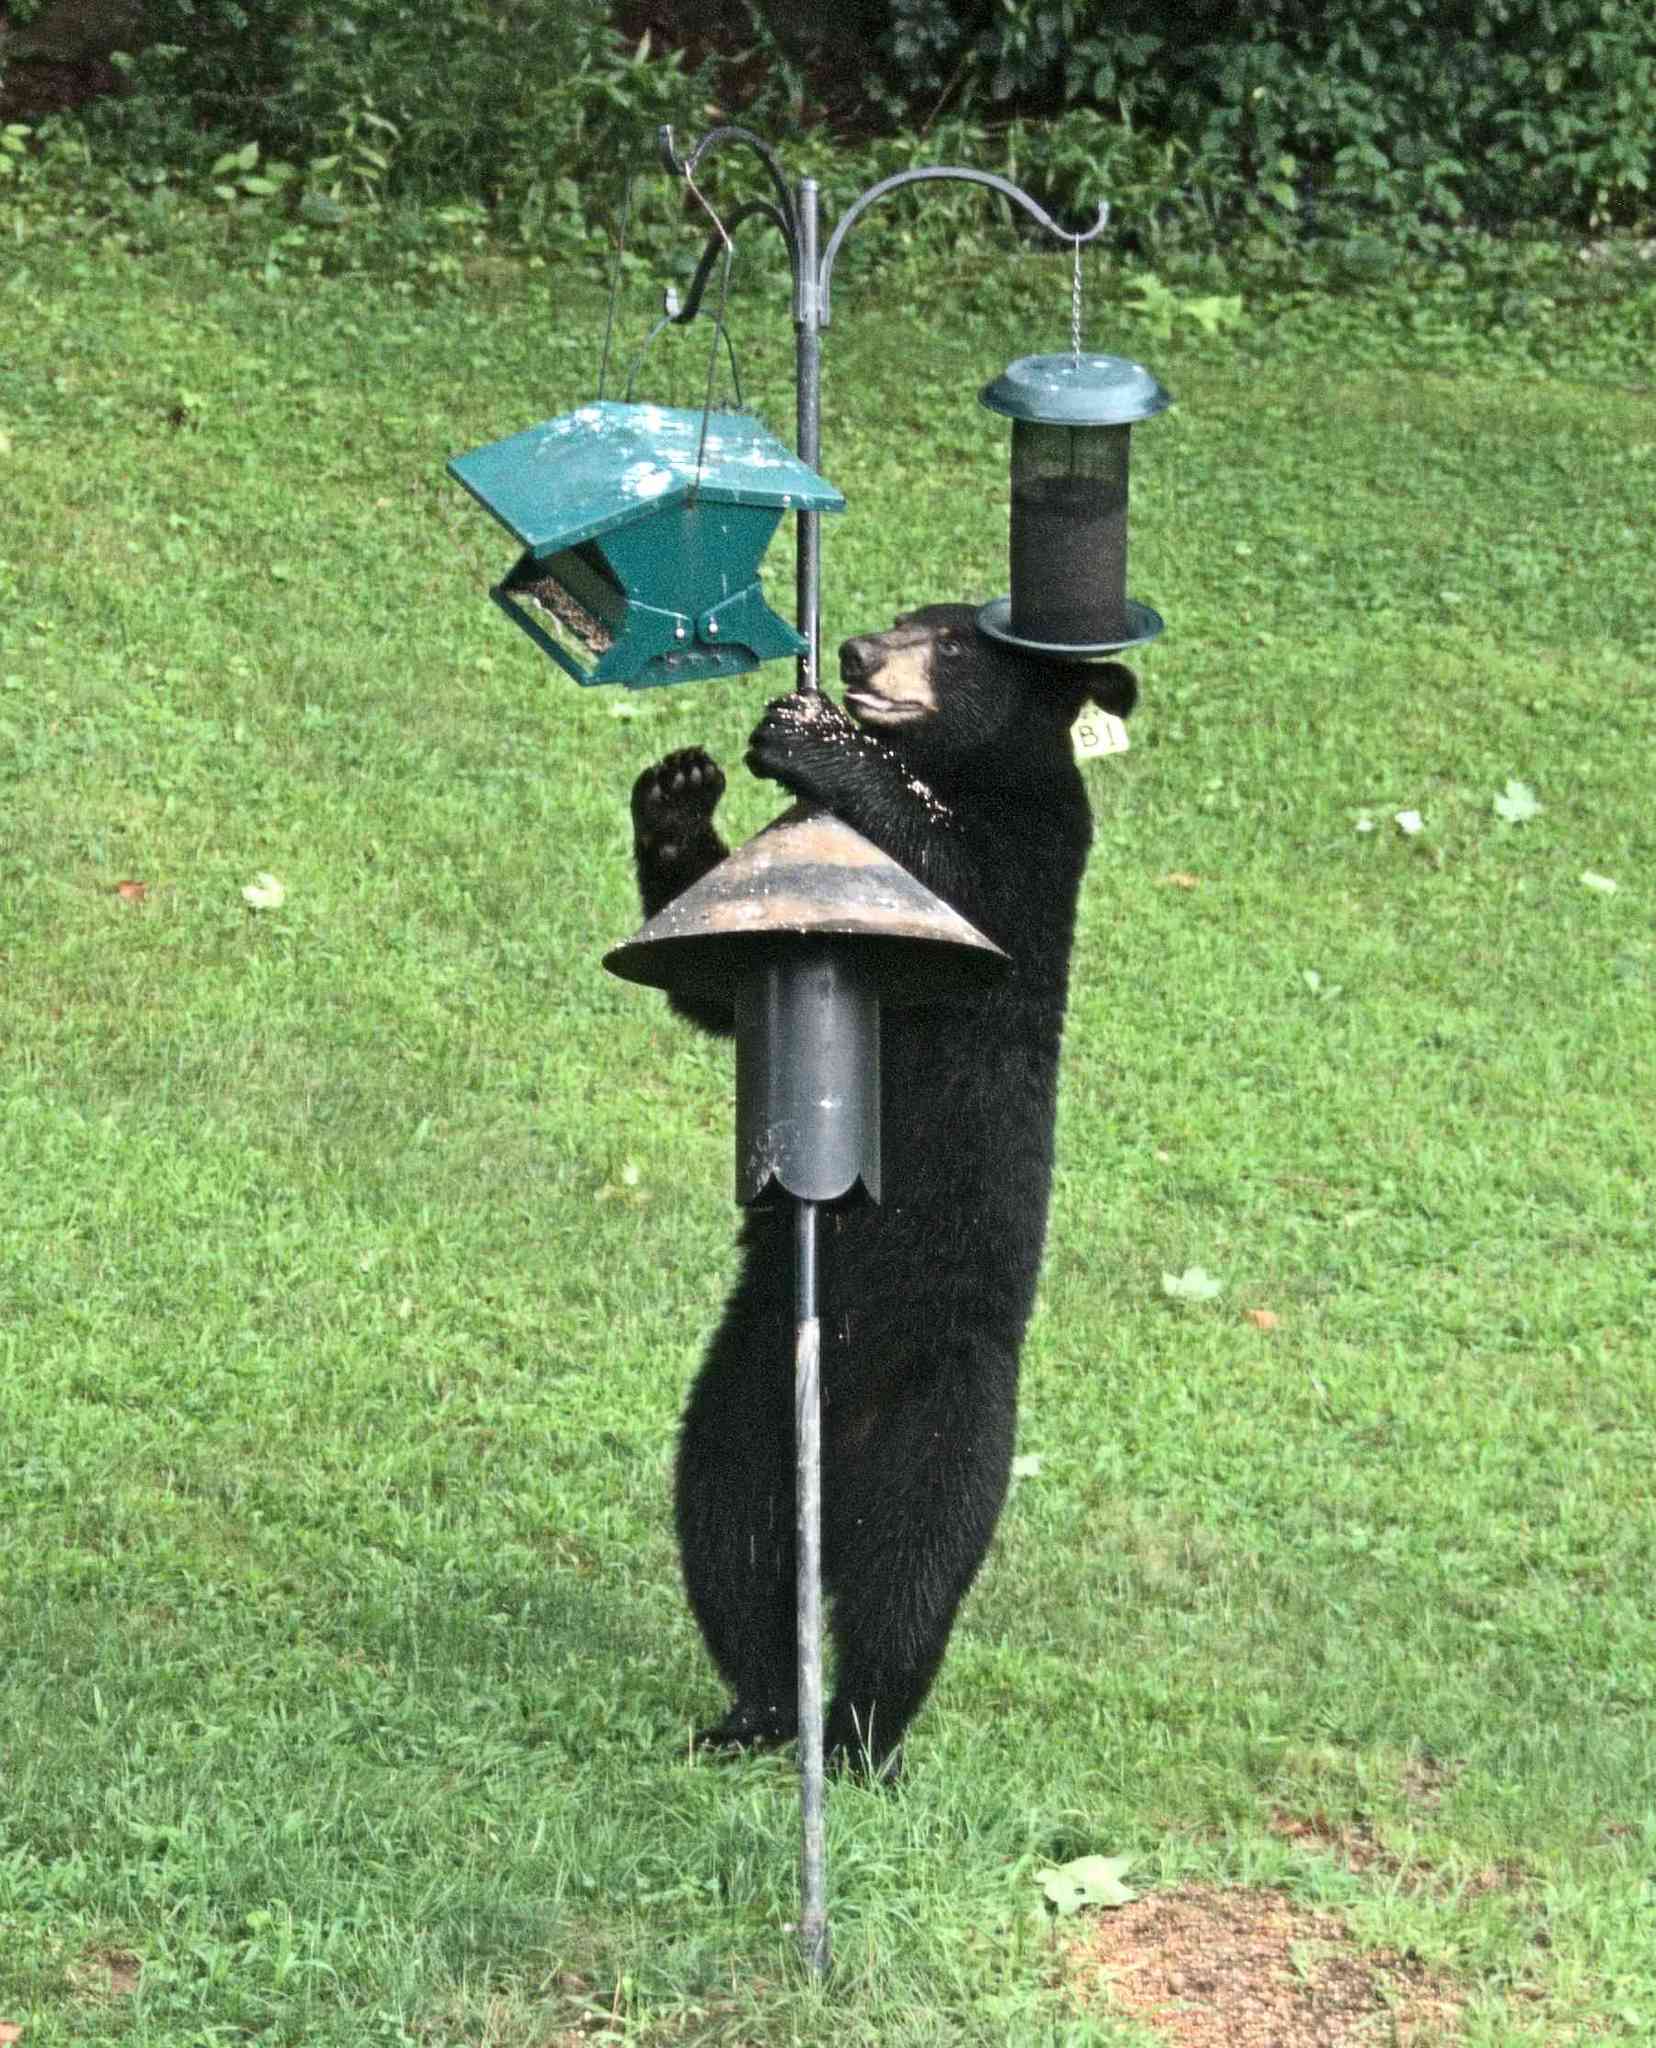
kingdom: Animalia
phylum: Chordata
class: Mammalia
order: Carnivora
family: Ursidae
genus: Ursus
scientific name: Ursus americanus
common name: American black bear
